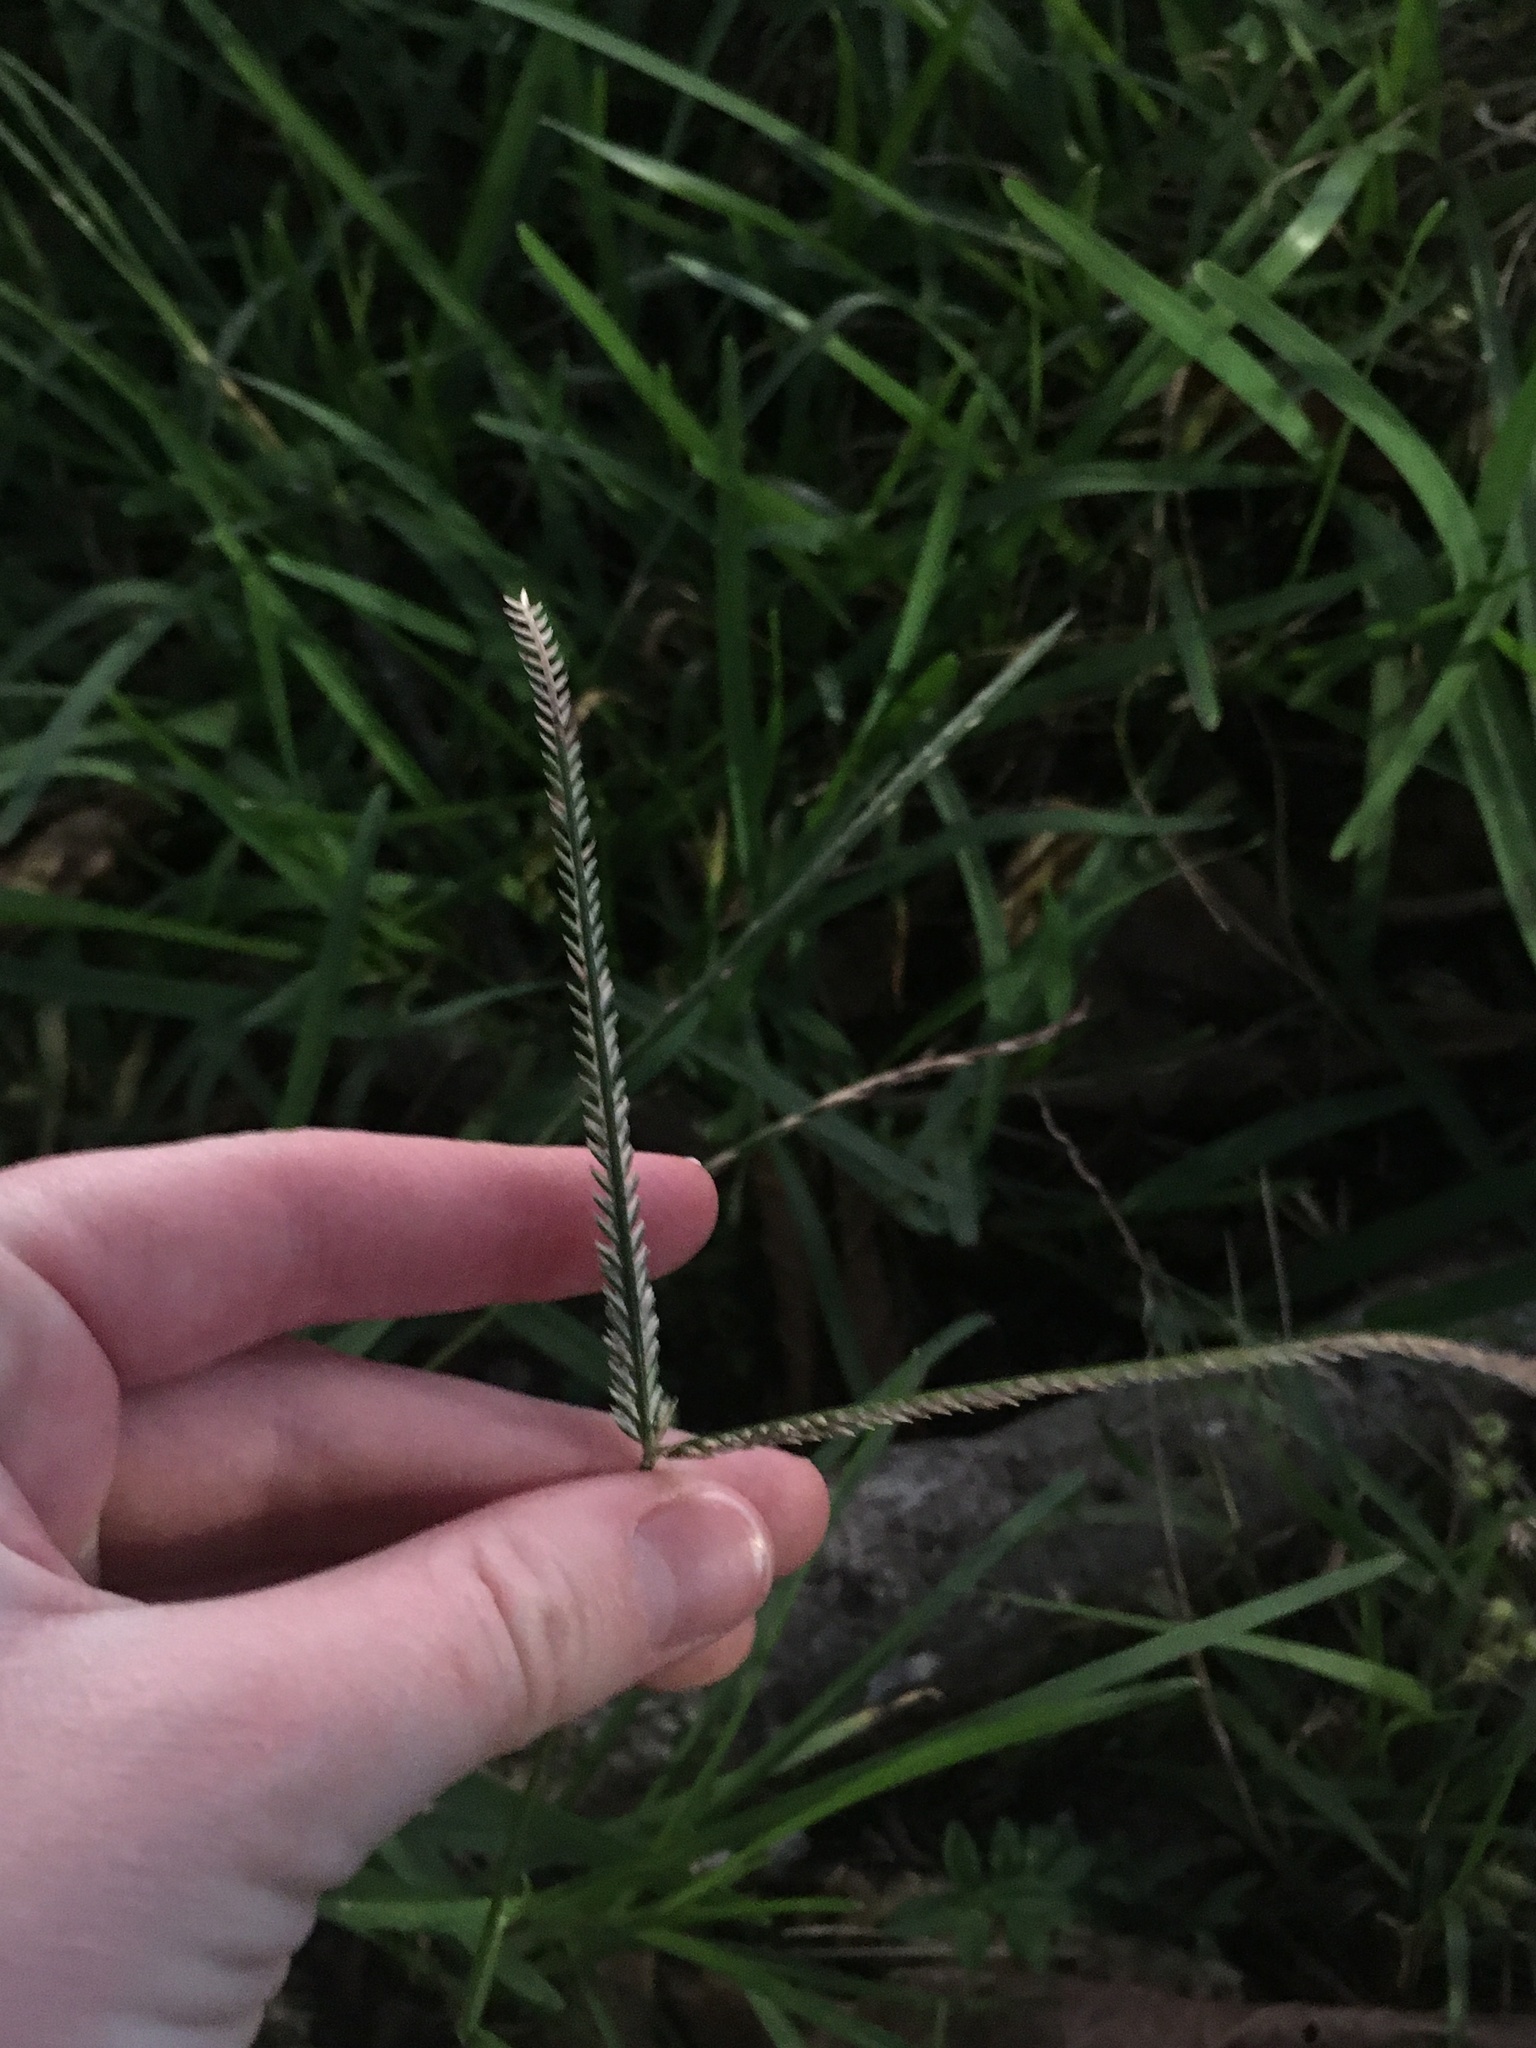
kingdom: Plantae
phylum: Tracheophyta
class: Liliopsida
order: Poales
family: Poaceae
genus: Eleusine
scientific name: Eleusine indica
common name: Yard-grass
